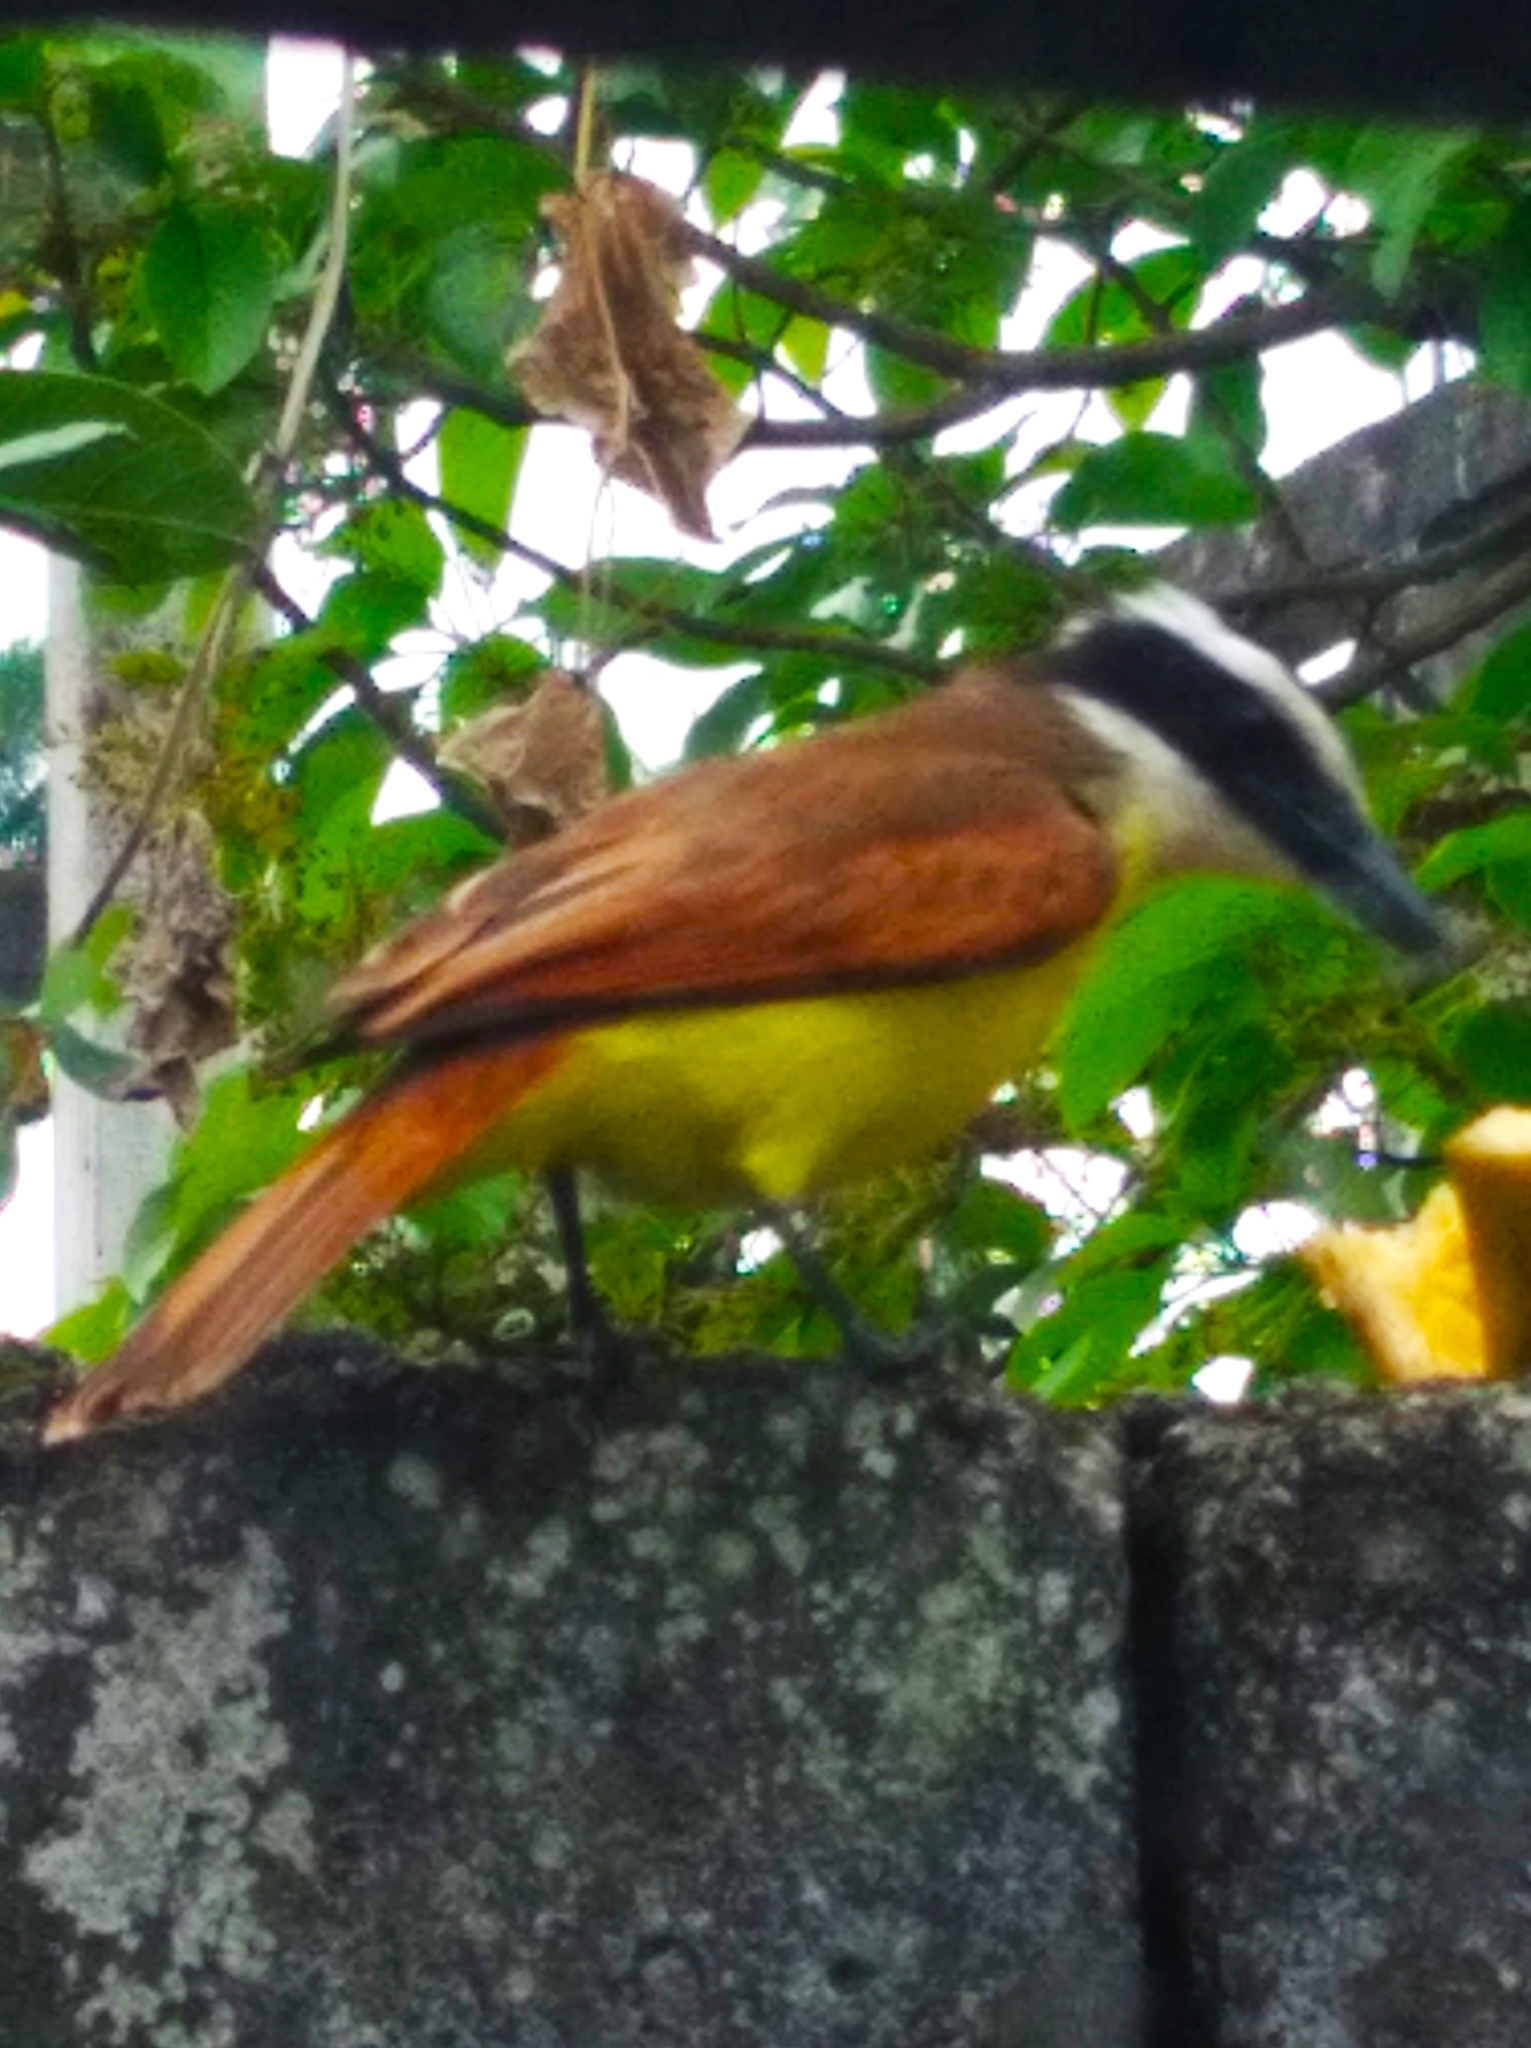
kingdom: Animalia
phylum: Chordata
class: Aves
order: Passeriformes
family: Tyrannidae
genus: Pitangus
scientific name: Pitangus sulphuratus
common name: Great kiskadee
